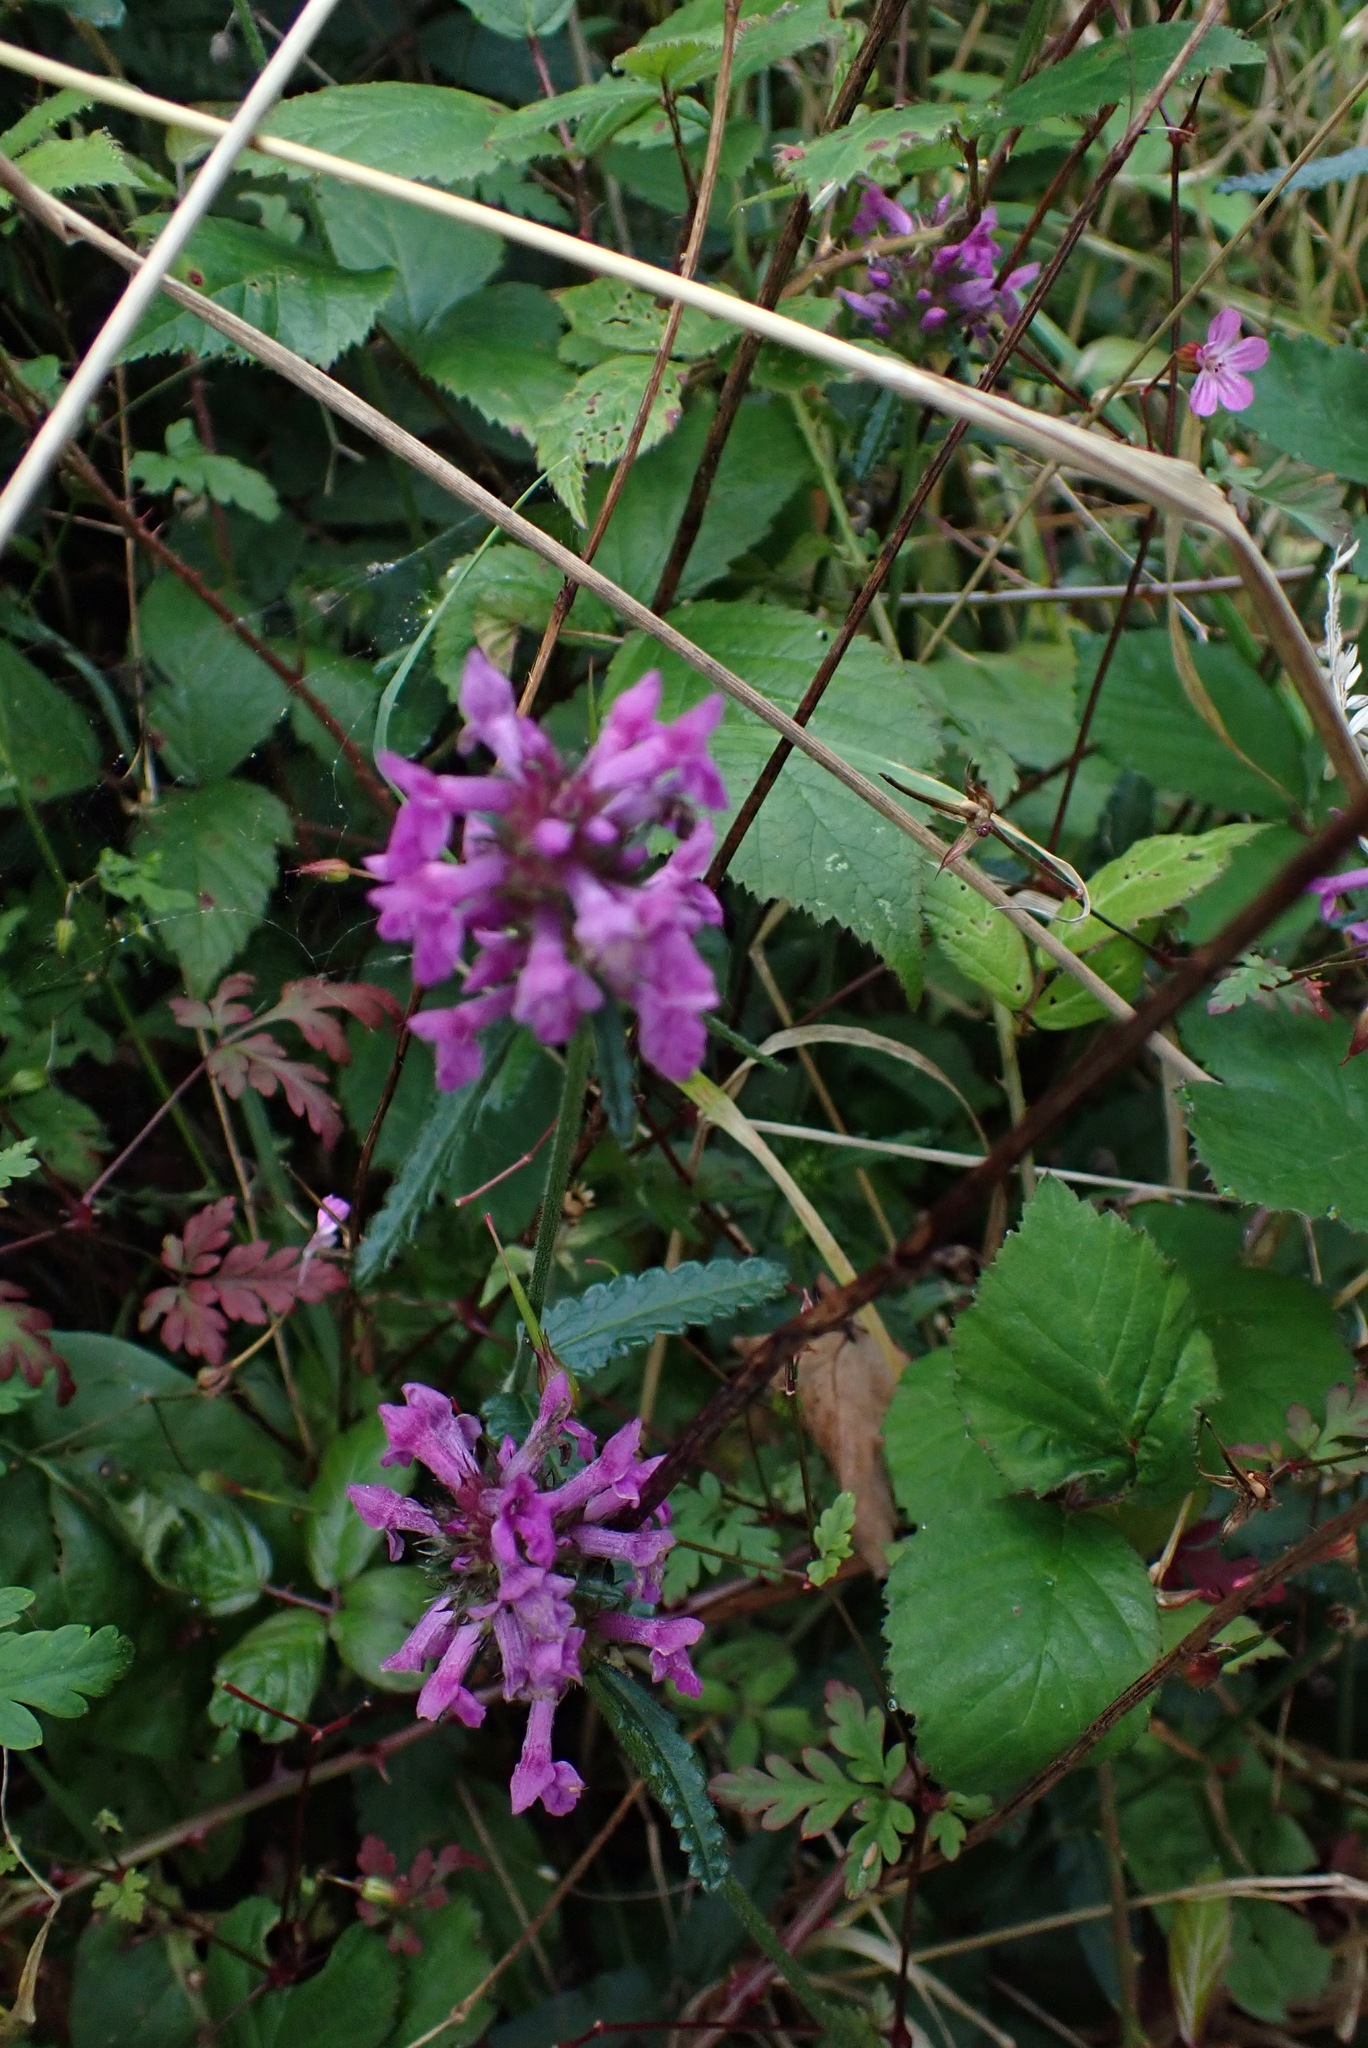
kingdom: Plantae
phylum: Tracheophyta
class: Magnoliopsida
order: Lamiales
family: Lamiaceae
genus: Betonica
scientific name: Betonica officinalis
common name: Bishop's-wort
